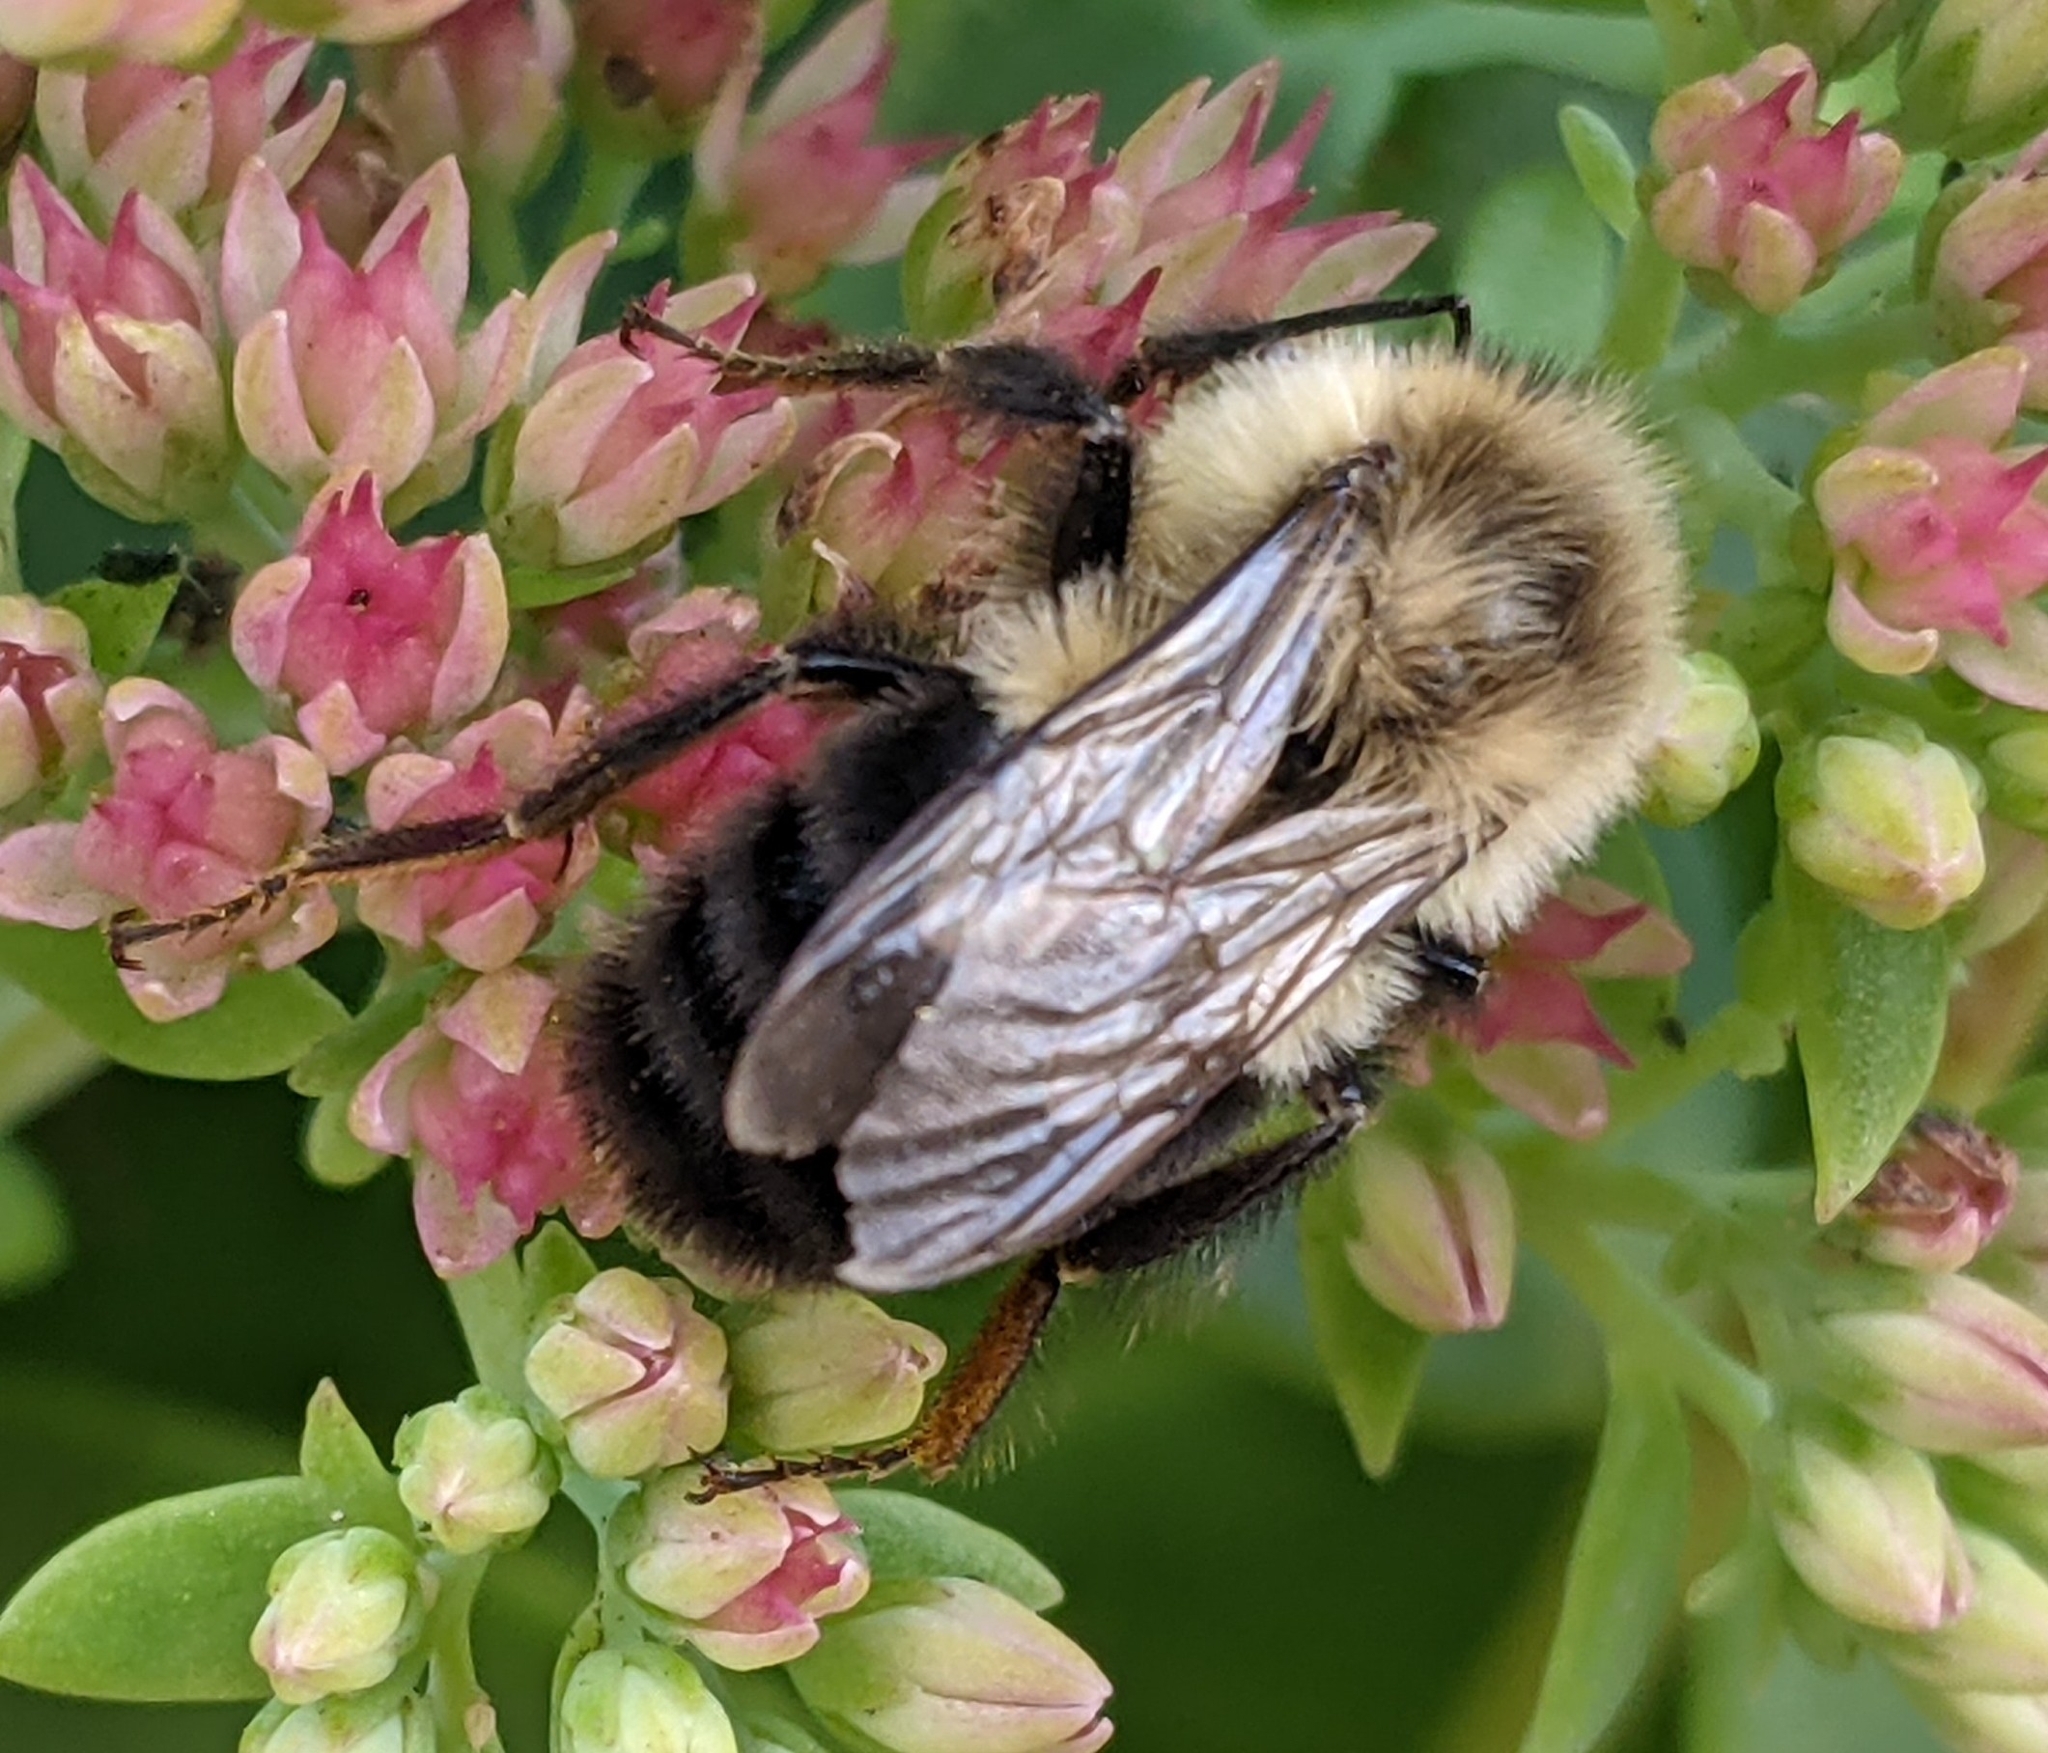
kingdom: Animalia
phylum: Arthropoda
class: Insecta
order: Hymenoptera
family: Apidae
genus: Bombus
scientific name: Bombus impatiens
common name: Common eastern bumble bee
